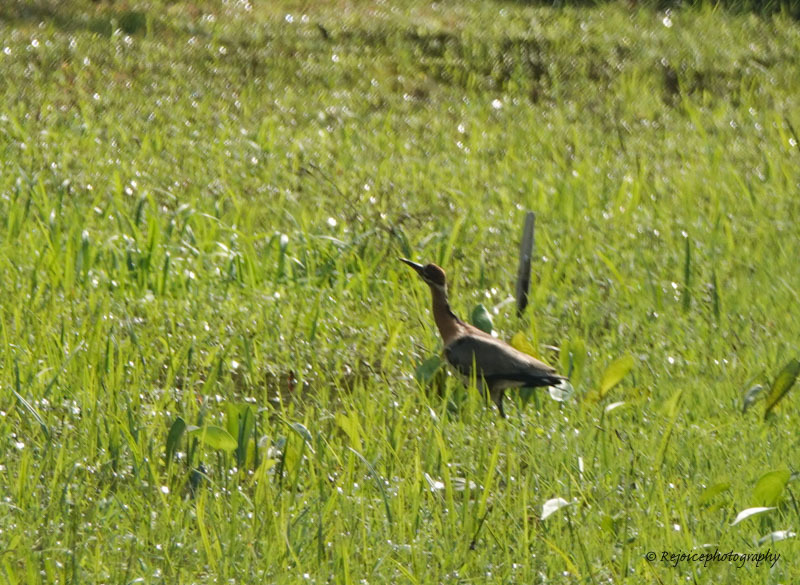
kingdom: Animalia
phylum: Chordata
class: Aves
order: Charadriiformes
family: Jacanidae
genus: Metopidius
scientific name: Metopidius indicus
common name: Bronze-winged jacana
